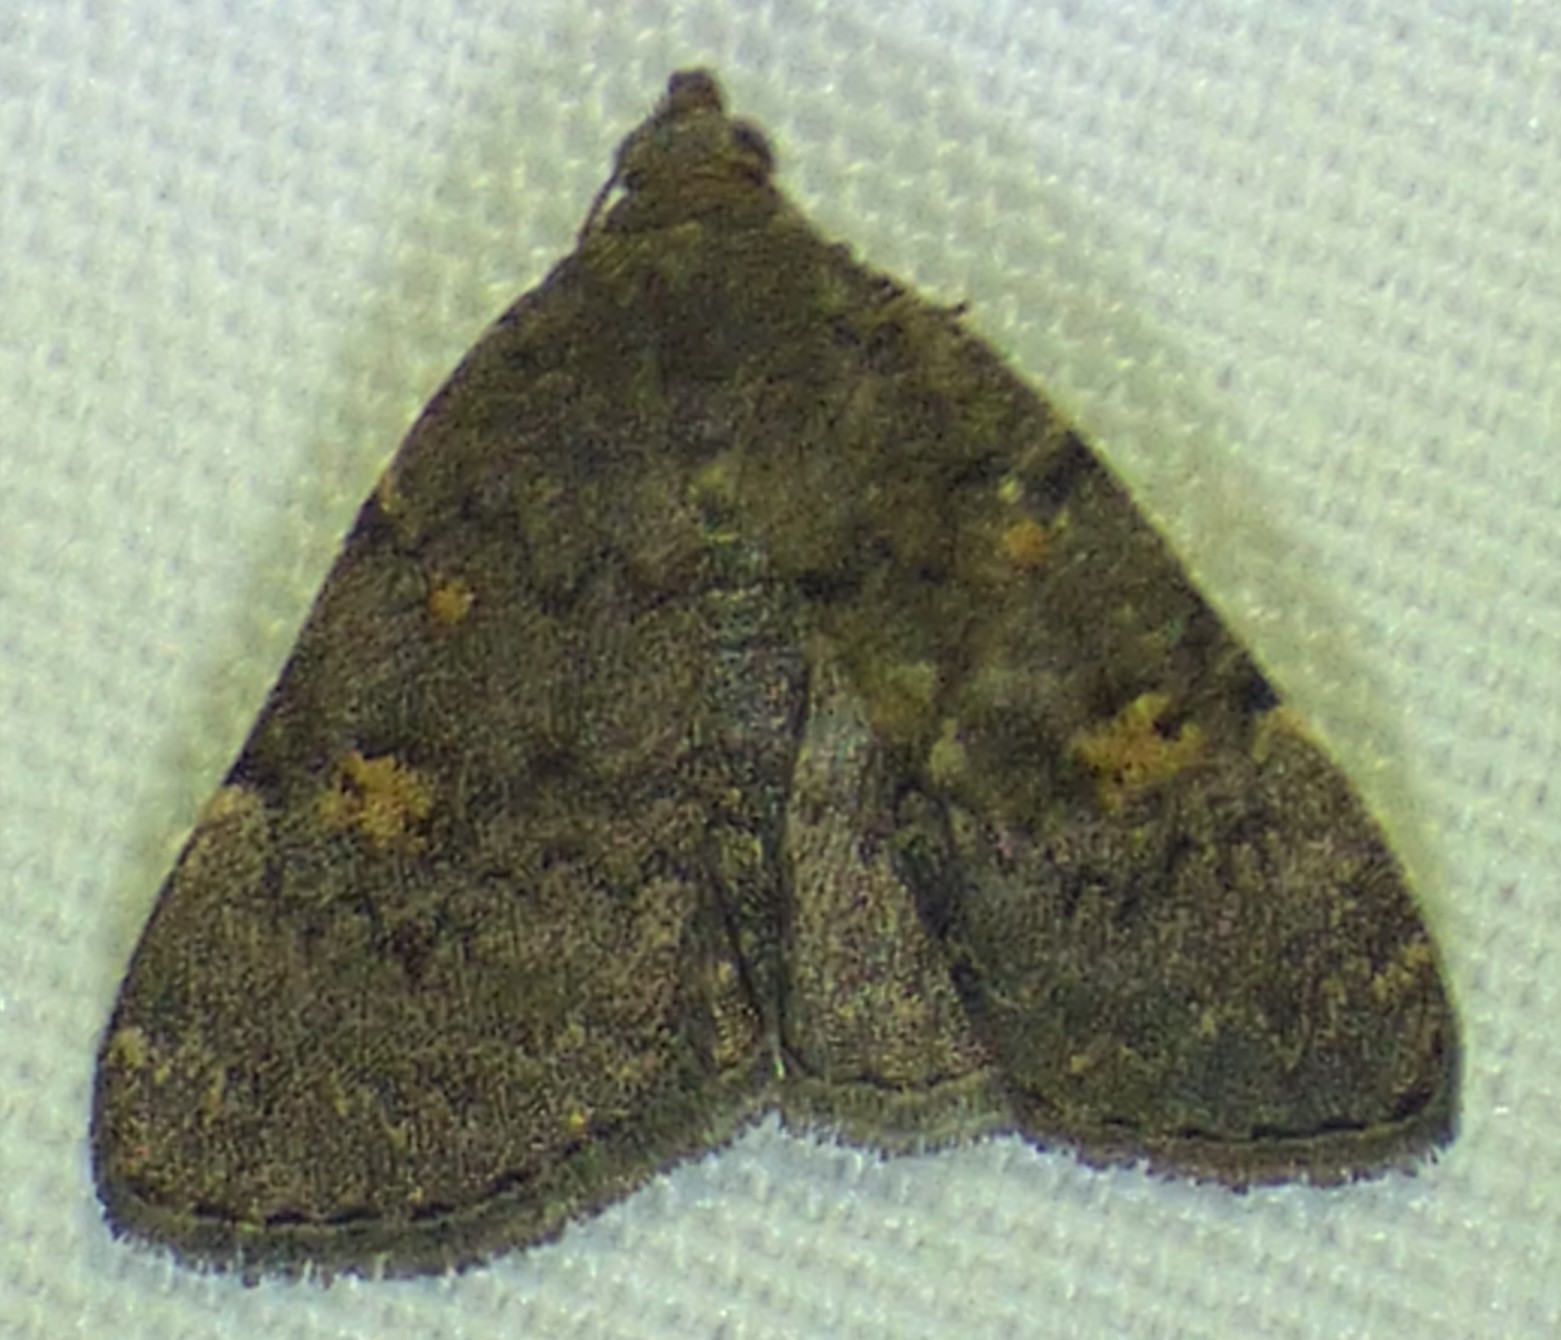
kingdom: Animalia
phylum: Arthropoda
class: Insecta
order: Lepidoptera
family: Erebidae
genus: Idia
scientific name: Idia aemula
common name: Common idia moth
